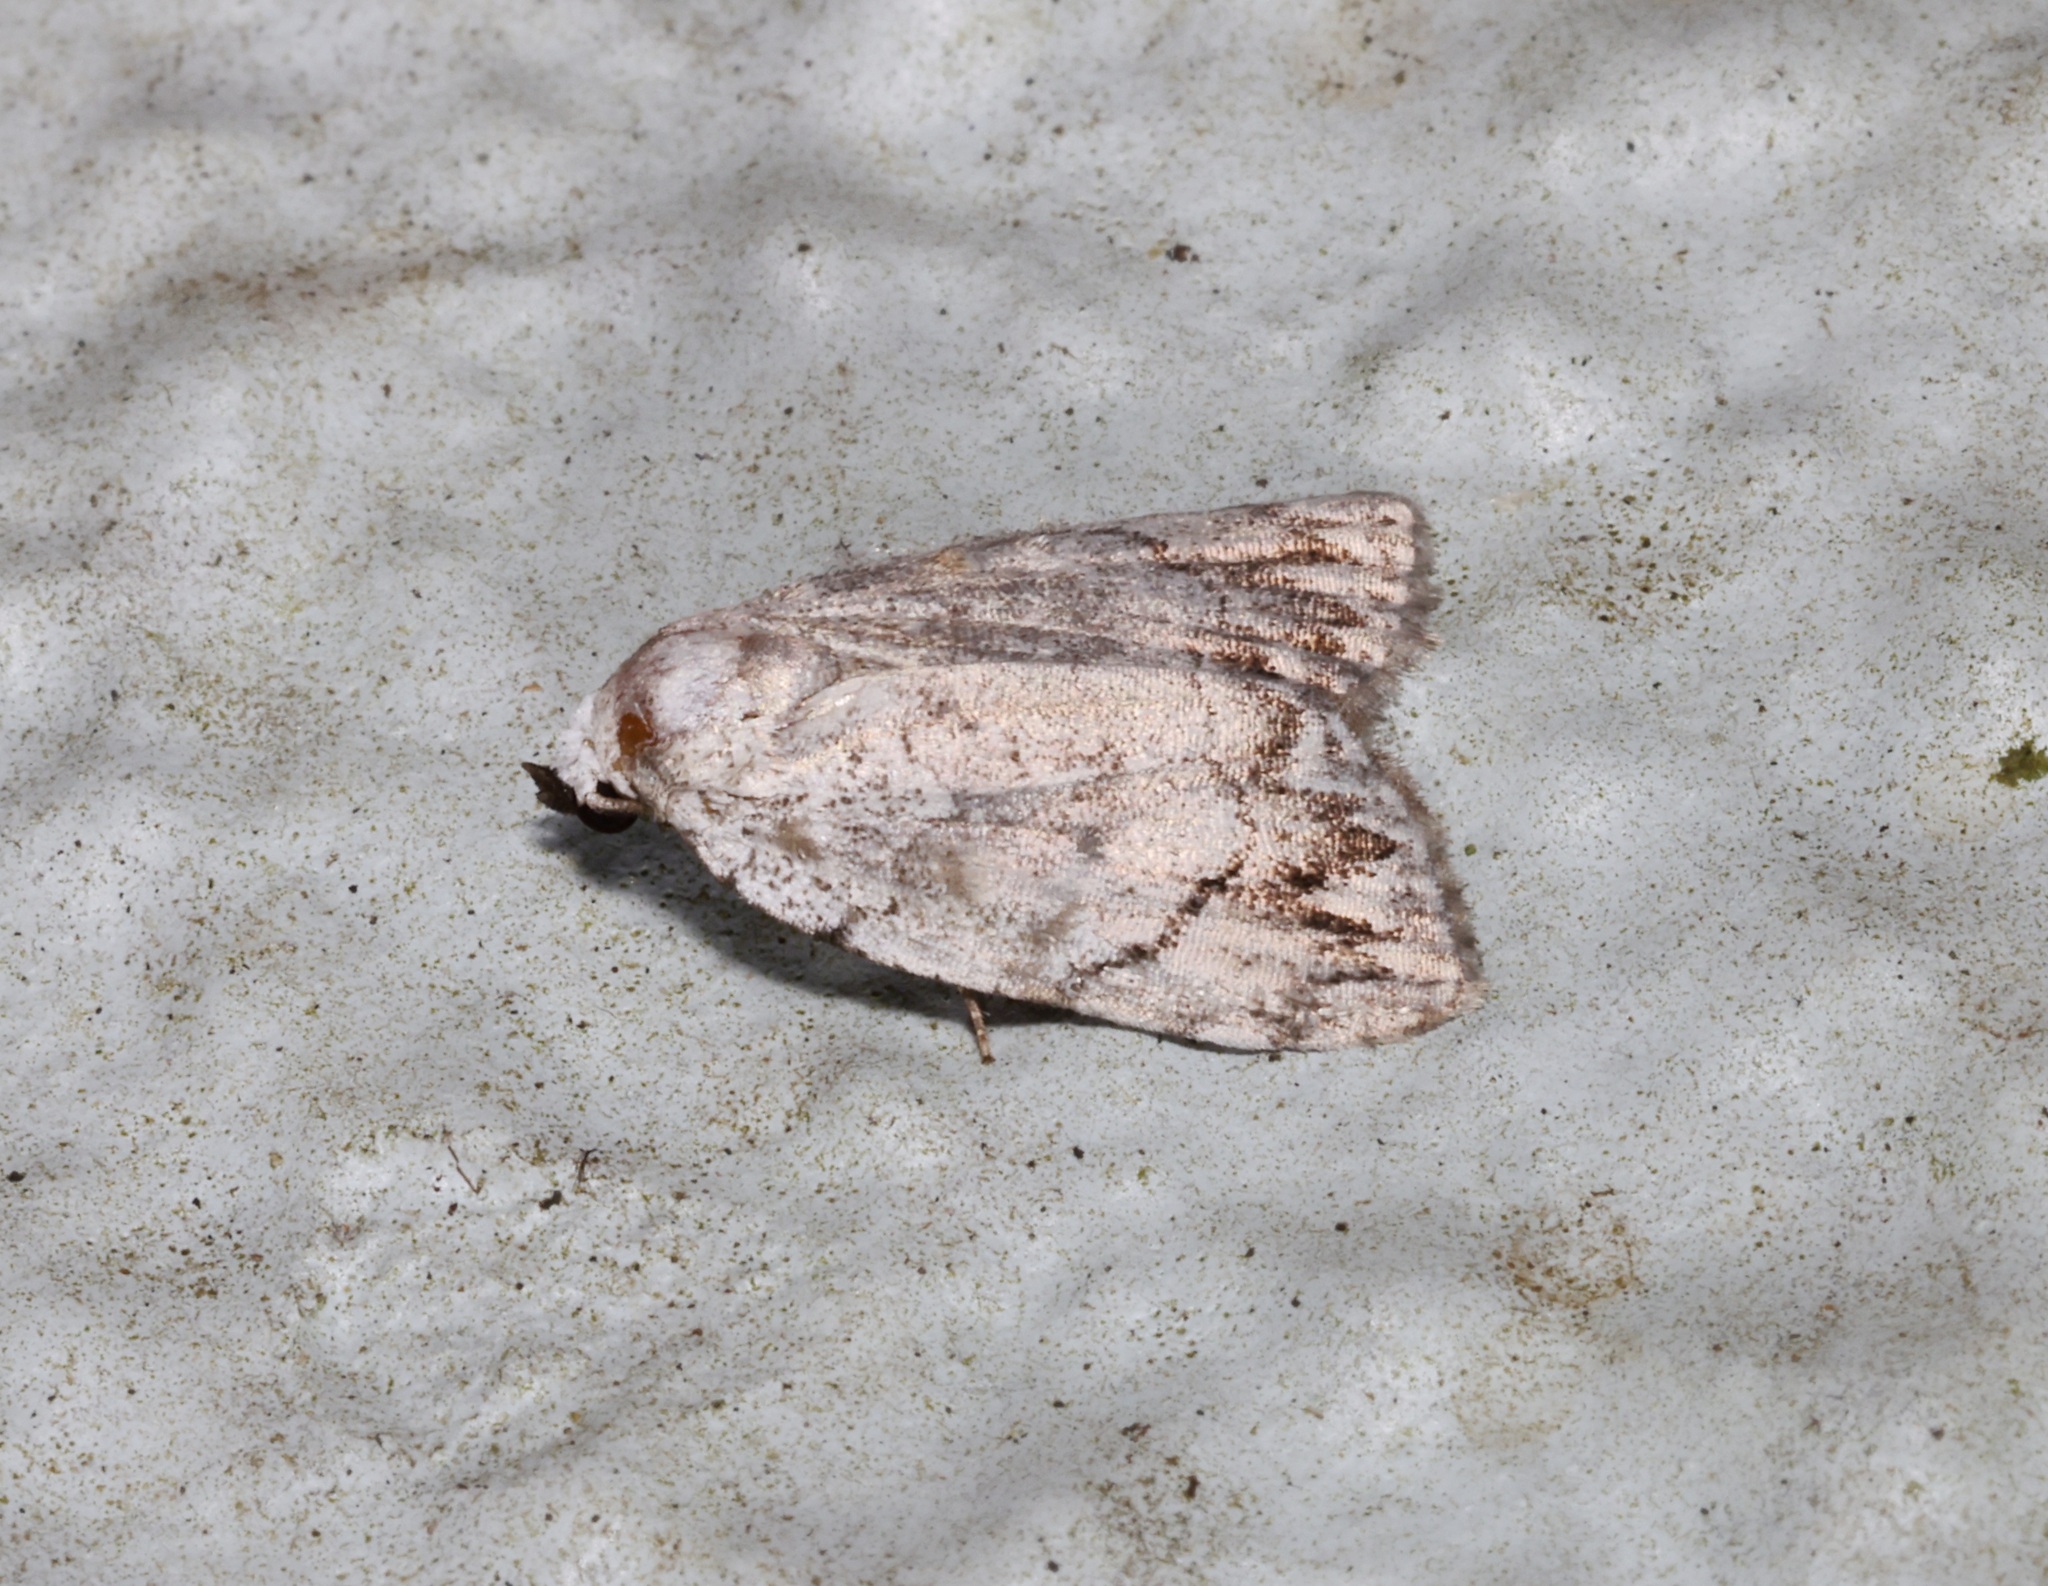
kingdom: Animalia
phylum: Arthropoda
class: Insecta
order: Lepidoptera
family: Nolidae
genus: Melanographia
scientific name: Melanographia flexilineata
